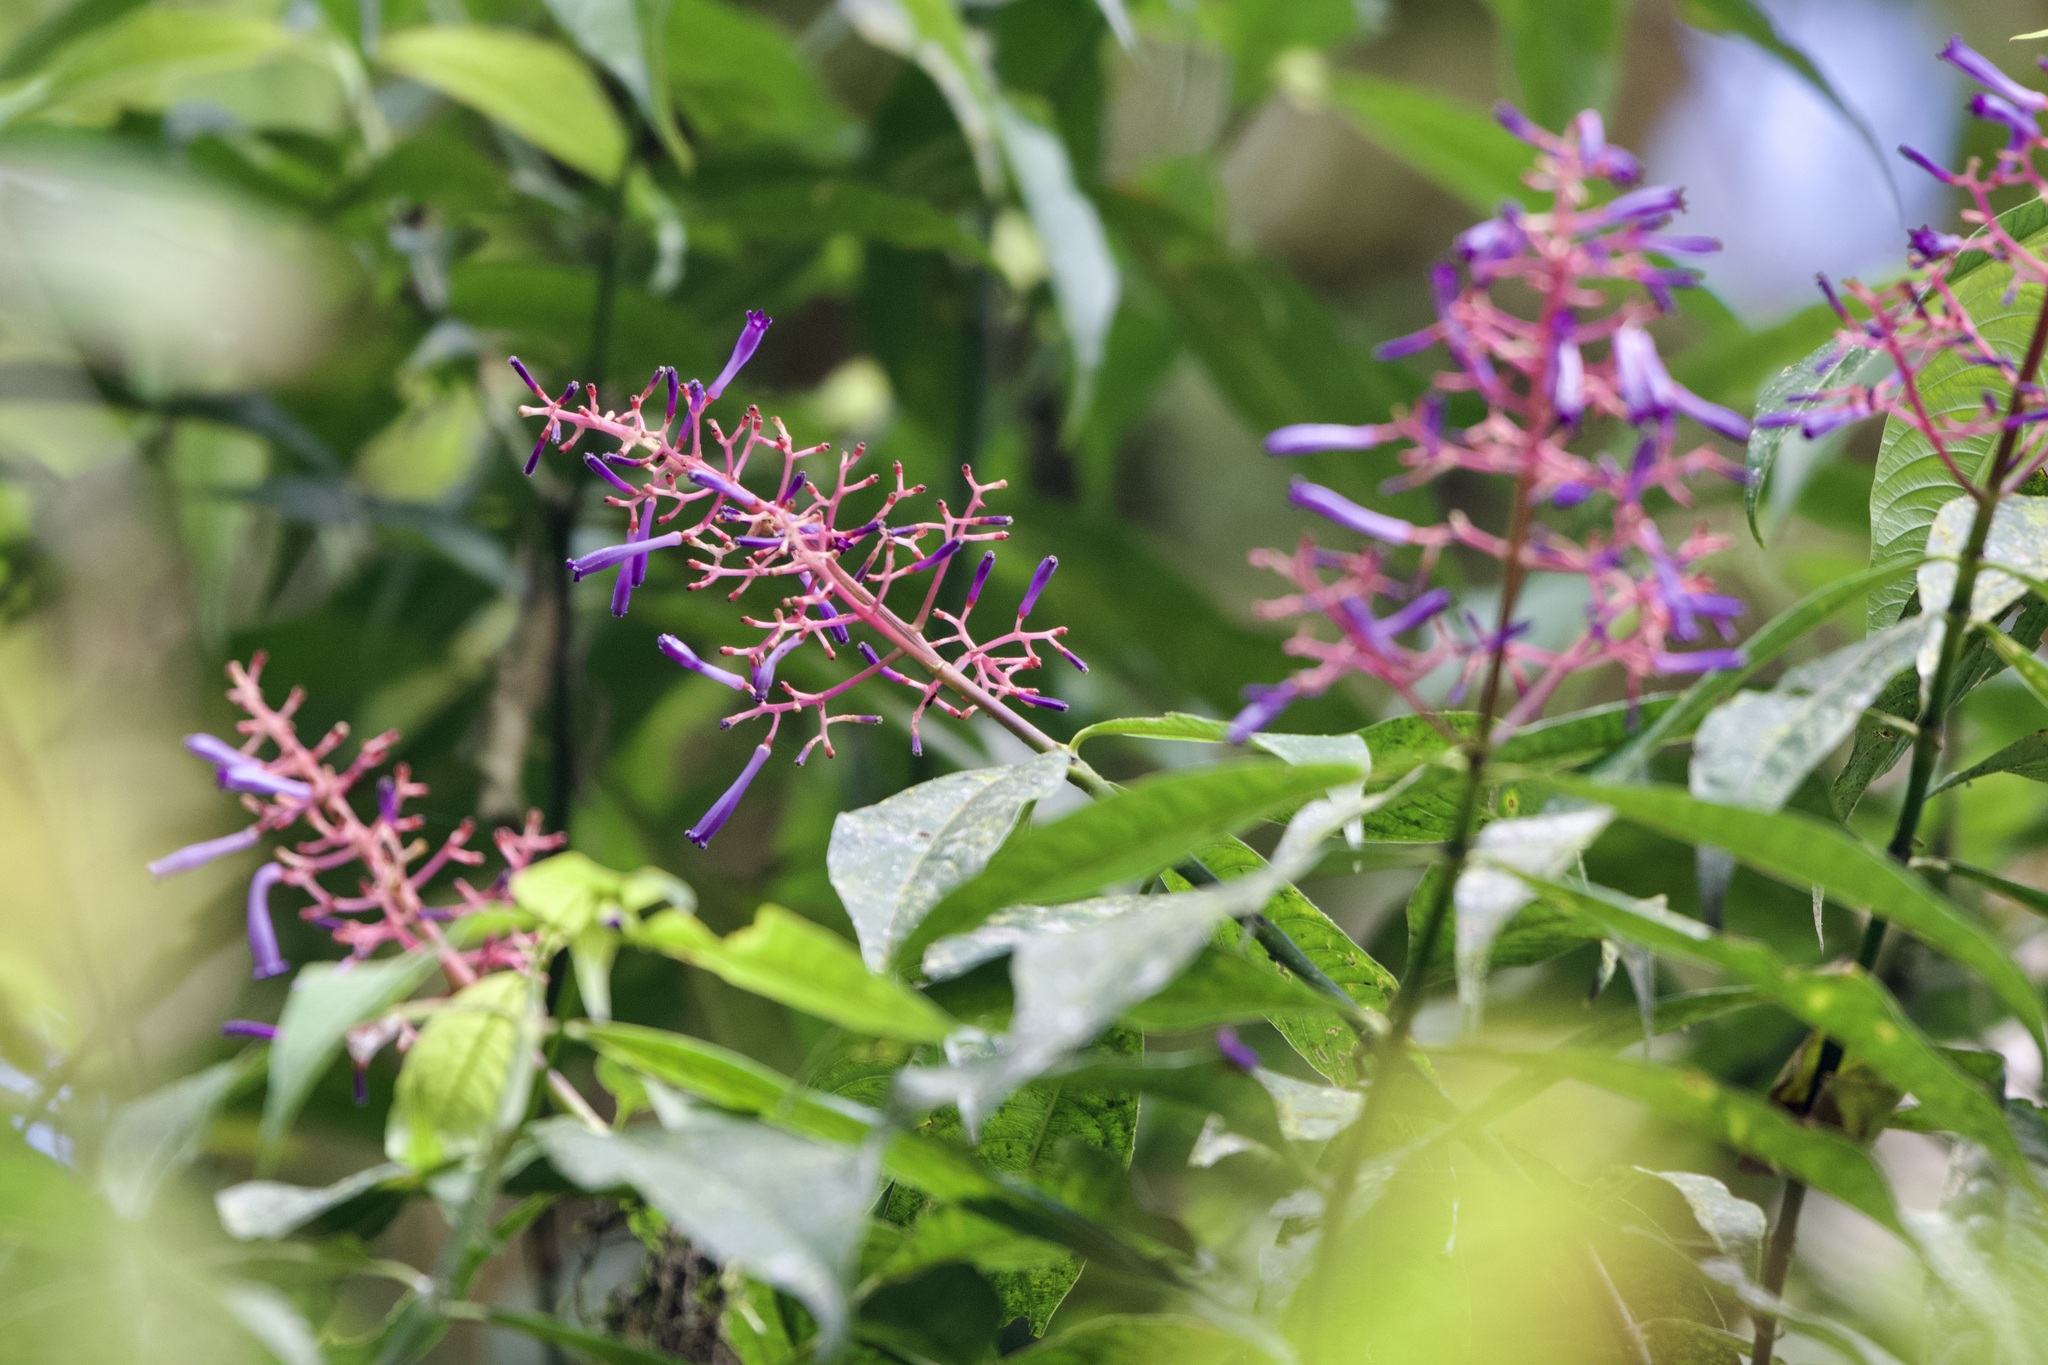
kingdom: Plantae
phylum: Tracheophyta
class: Magnoliopsida
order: Gentianales
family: Rubiaceae
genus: Palicourea
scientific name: Palicourea angustifolia
